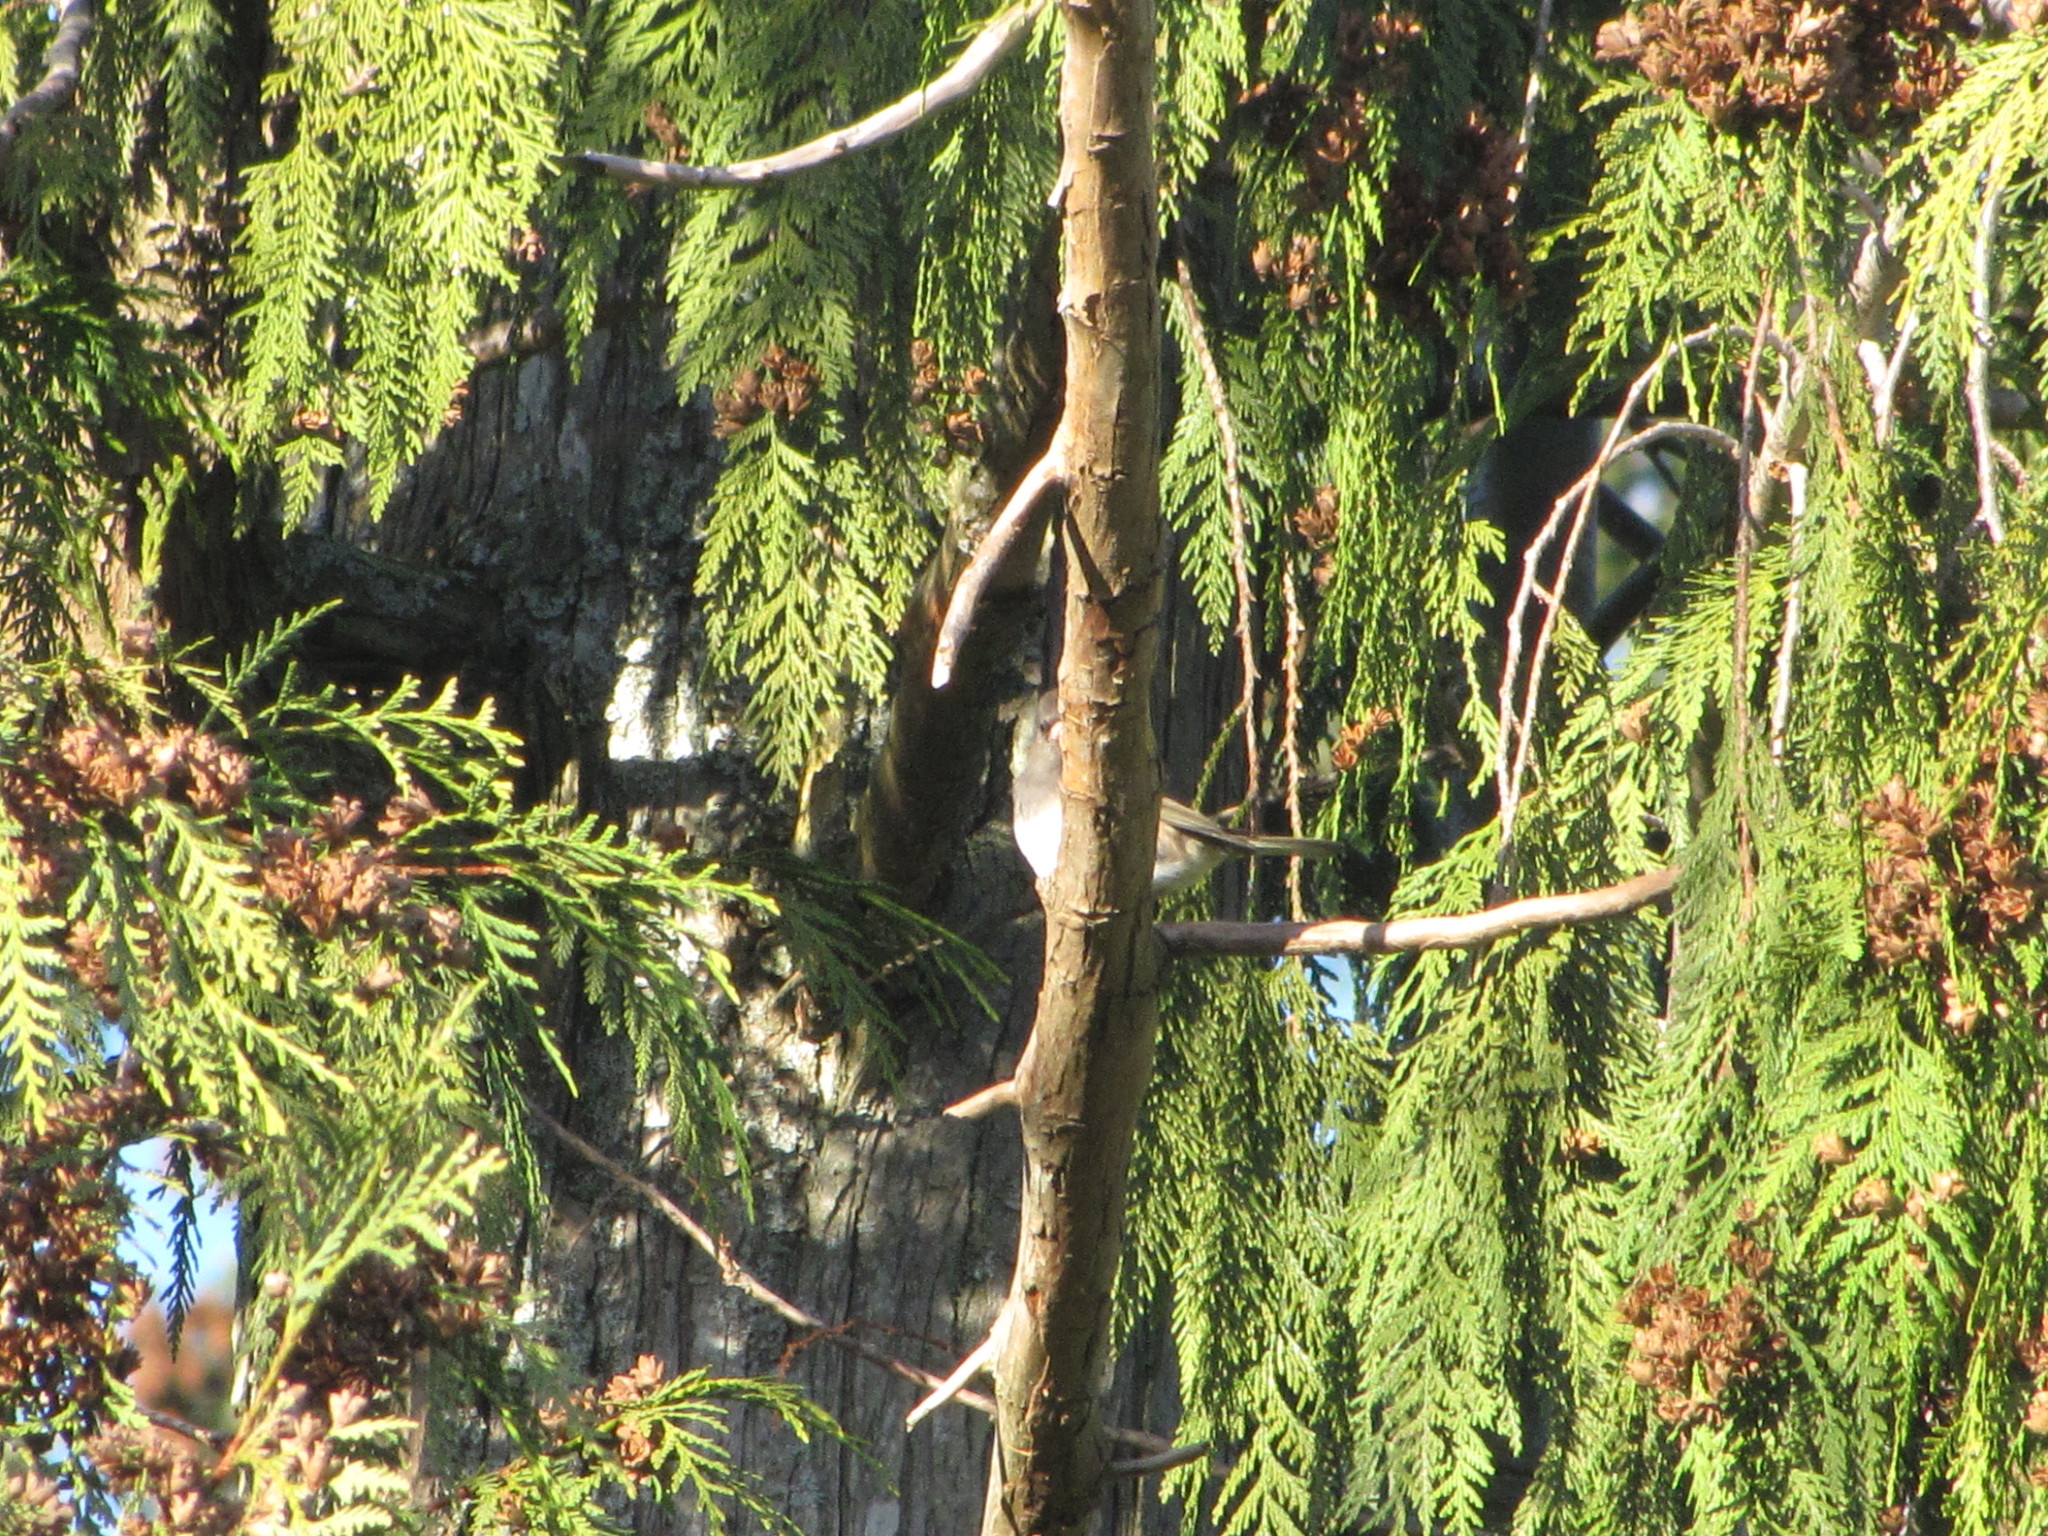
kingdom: Animalia
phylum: Chordata
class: Aves
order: Passeriformes
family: Passerellidae
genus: Junco
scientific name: Junco hyemalis
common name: Dark-eyed junco
